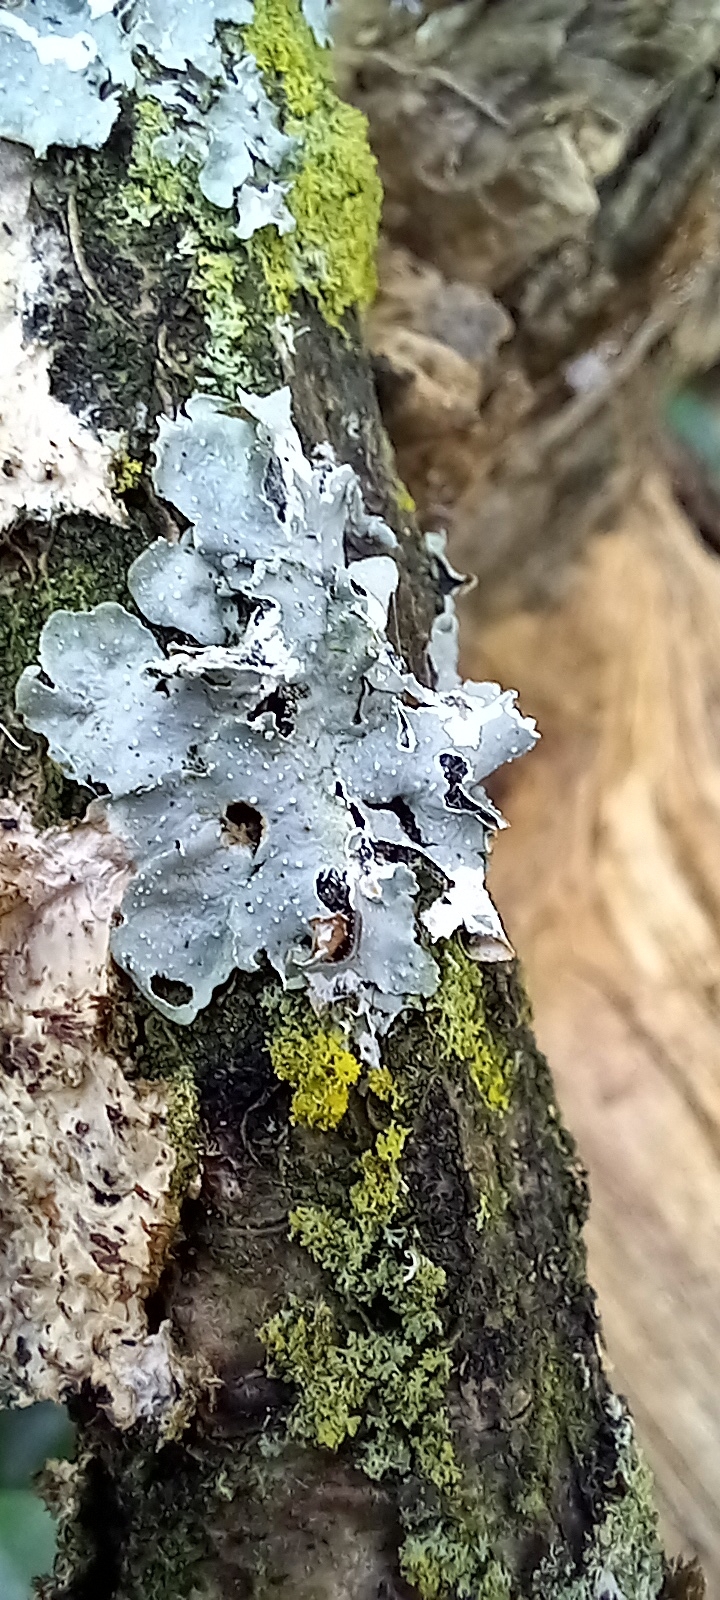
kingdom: Fungi
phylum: Ascomycota
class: Lecanoromycetes
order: Lecanorales
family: Parmeliaceae
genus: Punctelia
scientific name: Punctelia
